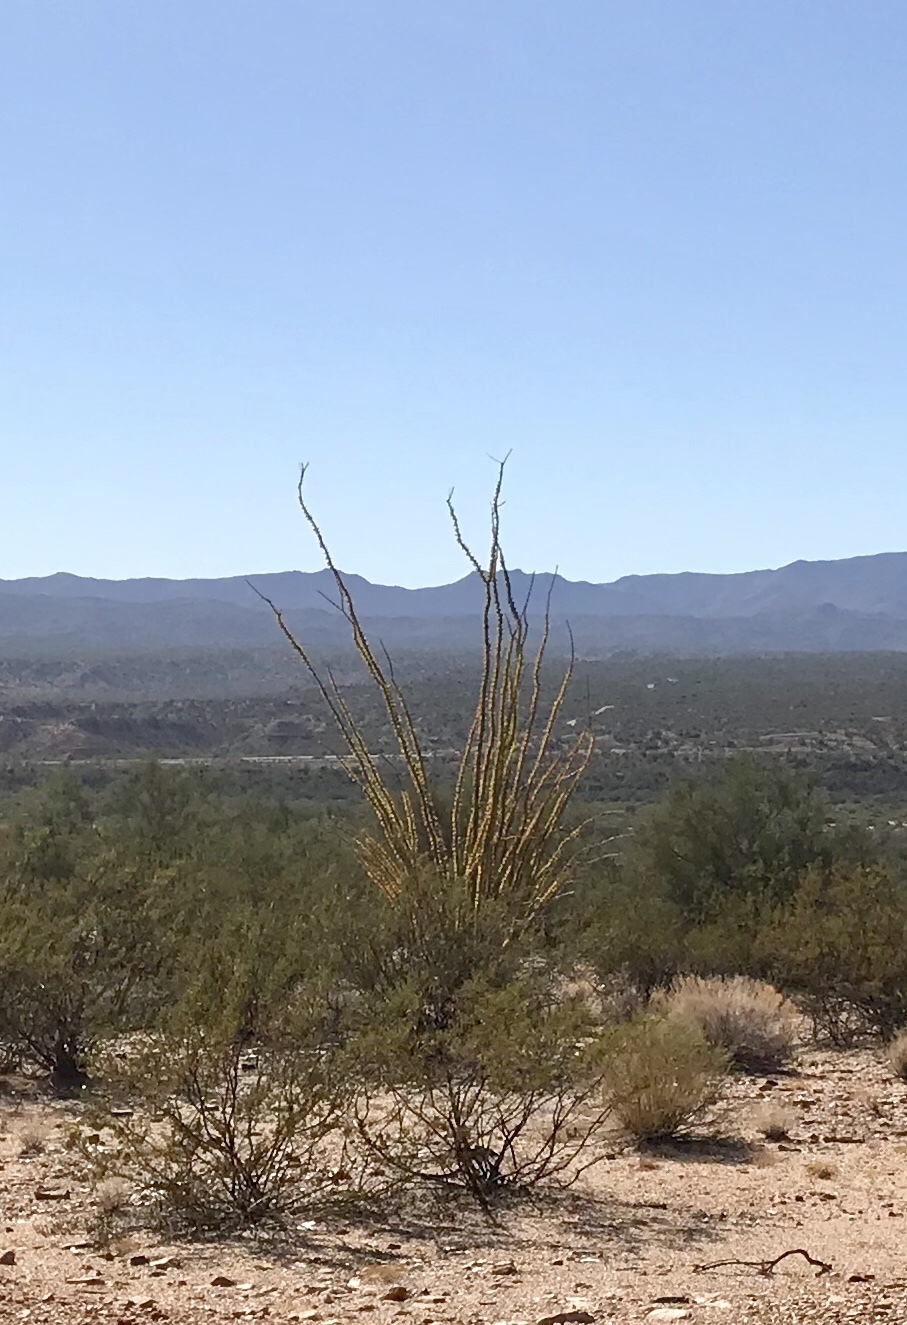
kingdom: Plantae
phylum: Tracheophyta
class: Magnoliopsida
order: Ericales
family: Fouquieriaceae
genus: Fouquieria
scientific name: Fouquieria splendens
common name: Vine-cactus
